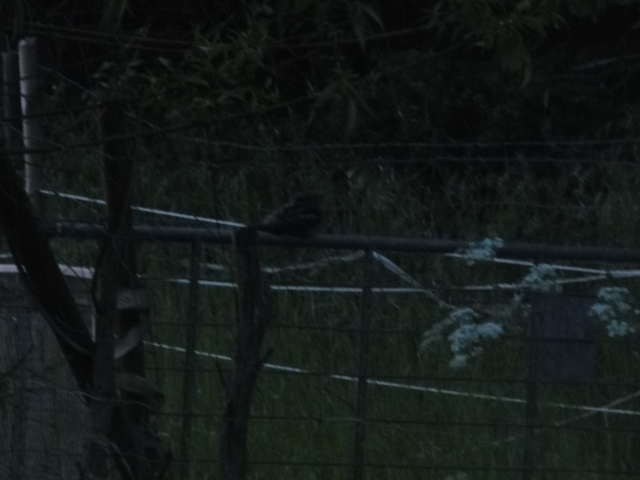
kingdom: Animalia
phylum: Chordata
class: Aves
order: Caprimulgiformes
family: Caprimulgidae
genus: Caprimulgus
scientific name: Caprimulgus europaeus
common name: European nightjar
